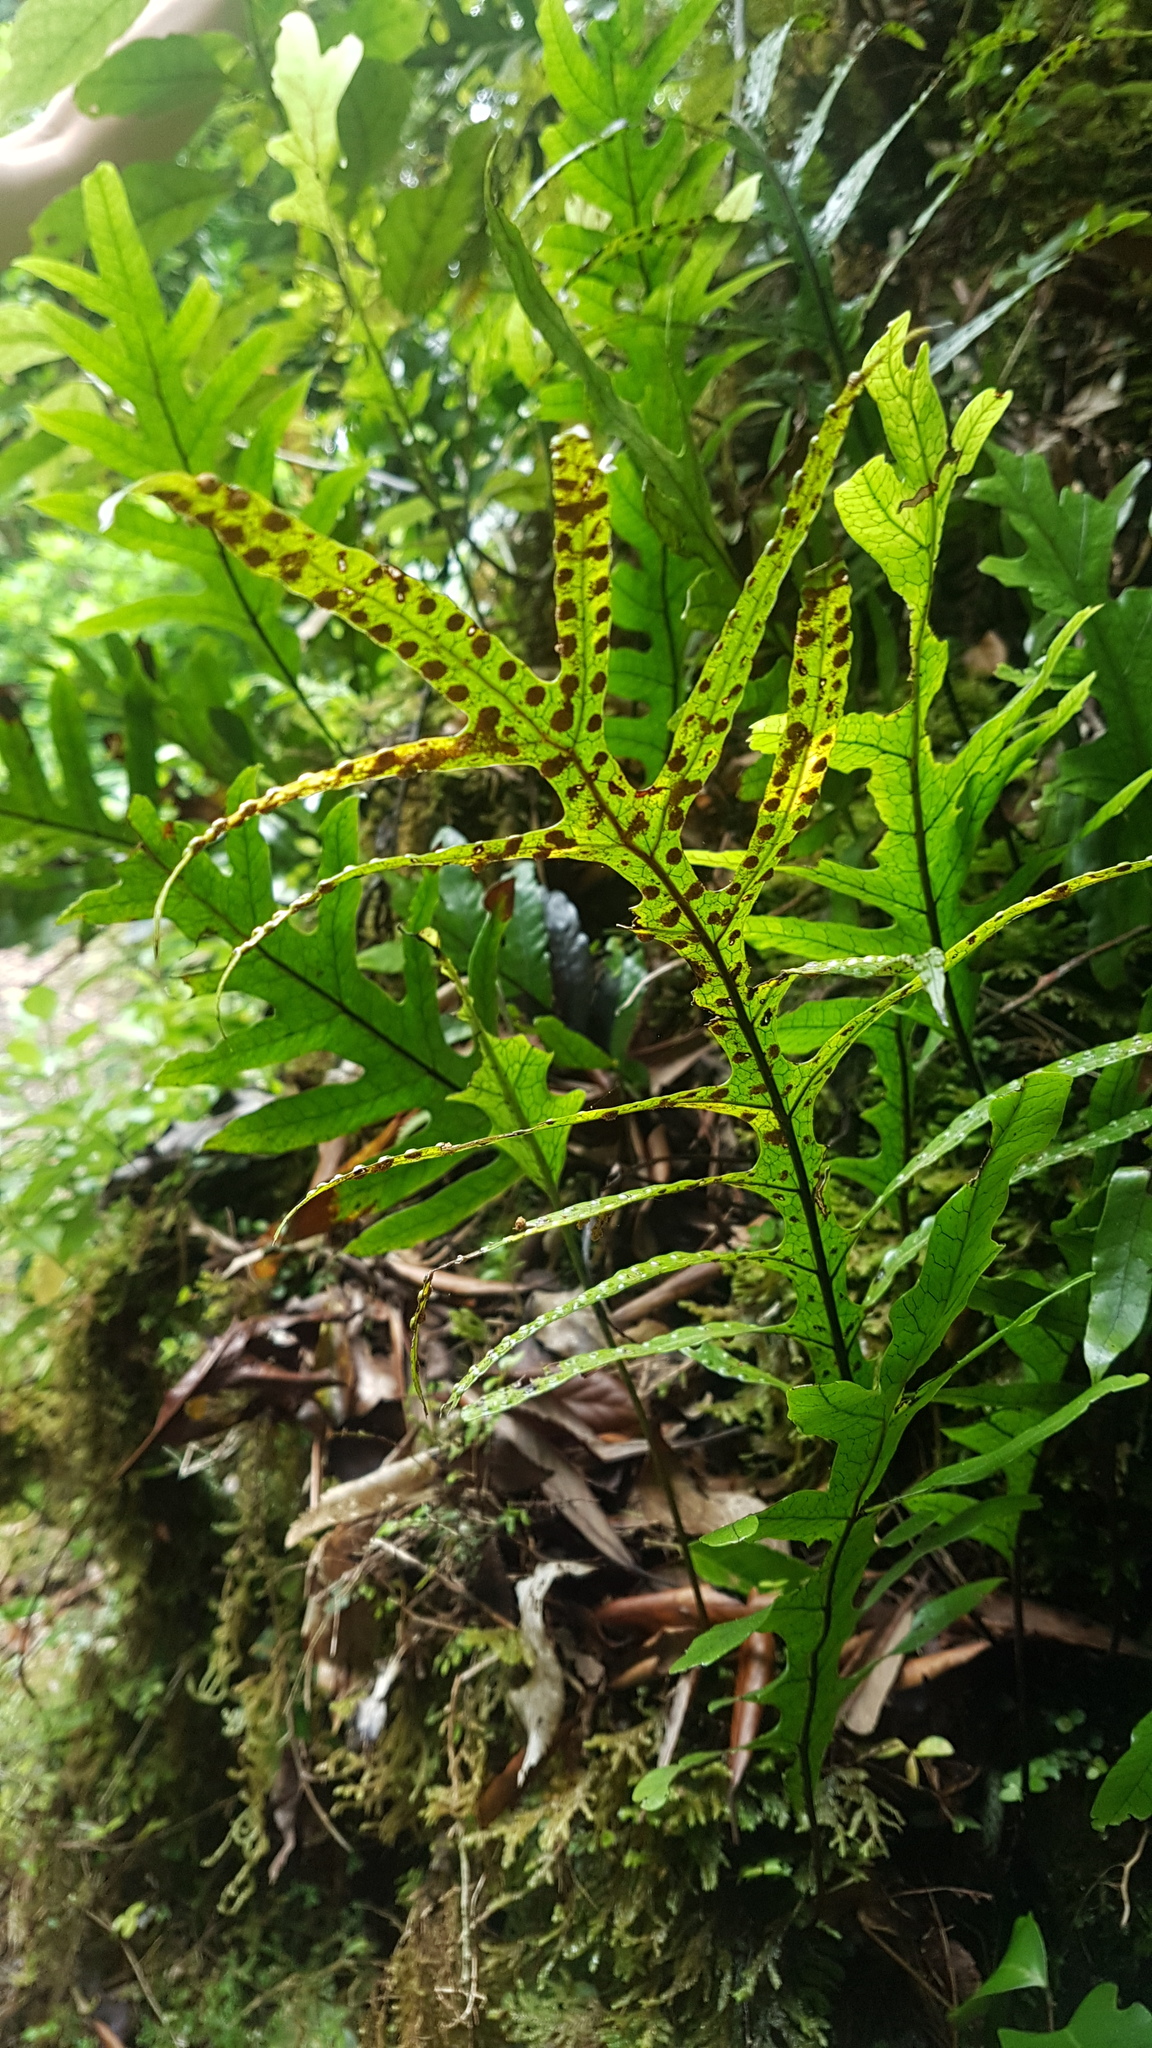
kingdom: Plantae
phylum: Tracheophyta
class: Polypodiopsida
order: Polypodiales
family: Polypodiaceae
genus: Lecanopteris
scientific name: Lecanopteris pustulata
